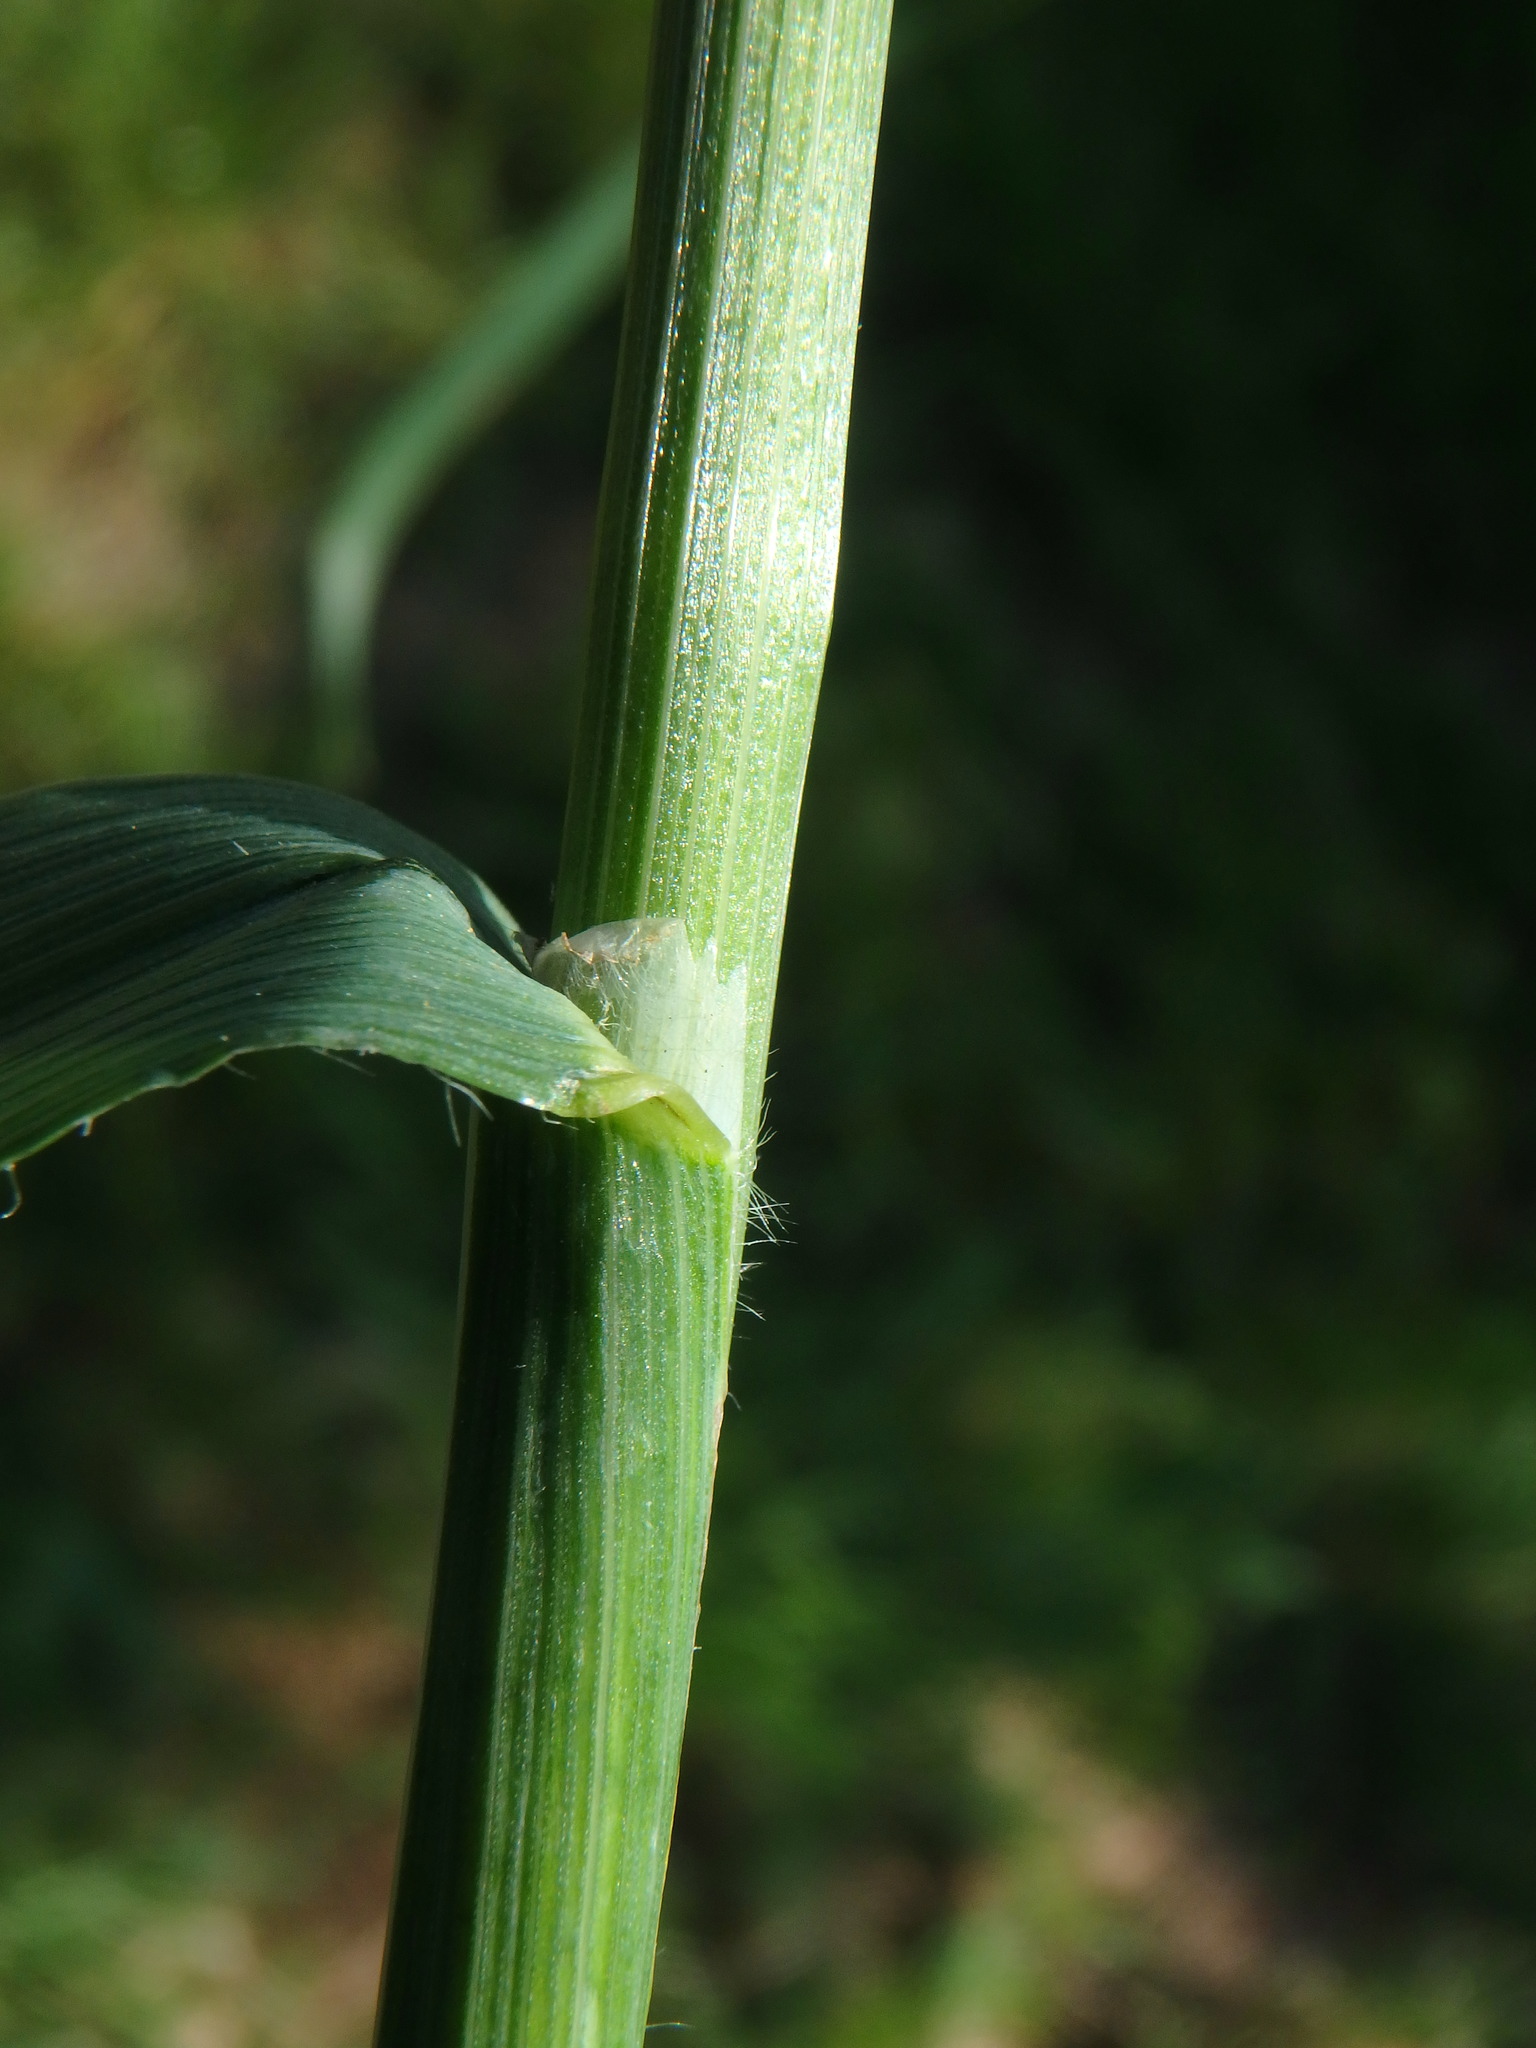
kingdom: Plantae
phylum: Tracheophyta
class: Liliopsida
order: Poales
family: Poaceae
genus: Bromus
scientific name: Bromus carinatus
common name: Mountain brome
